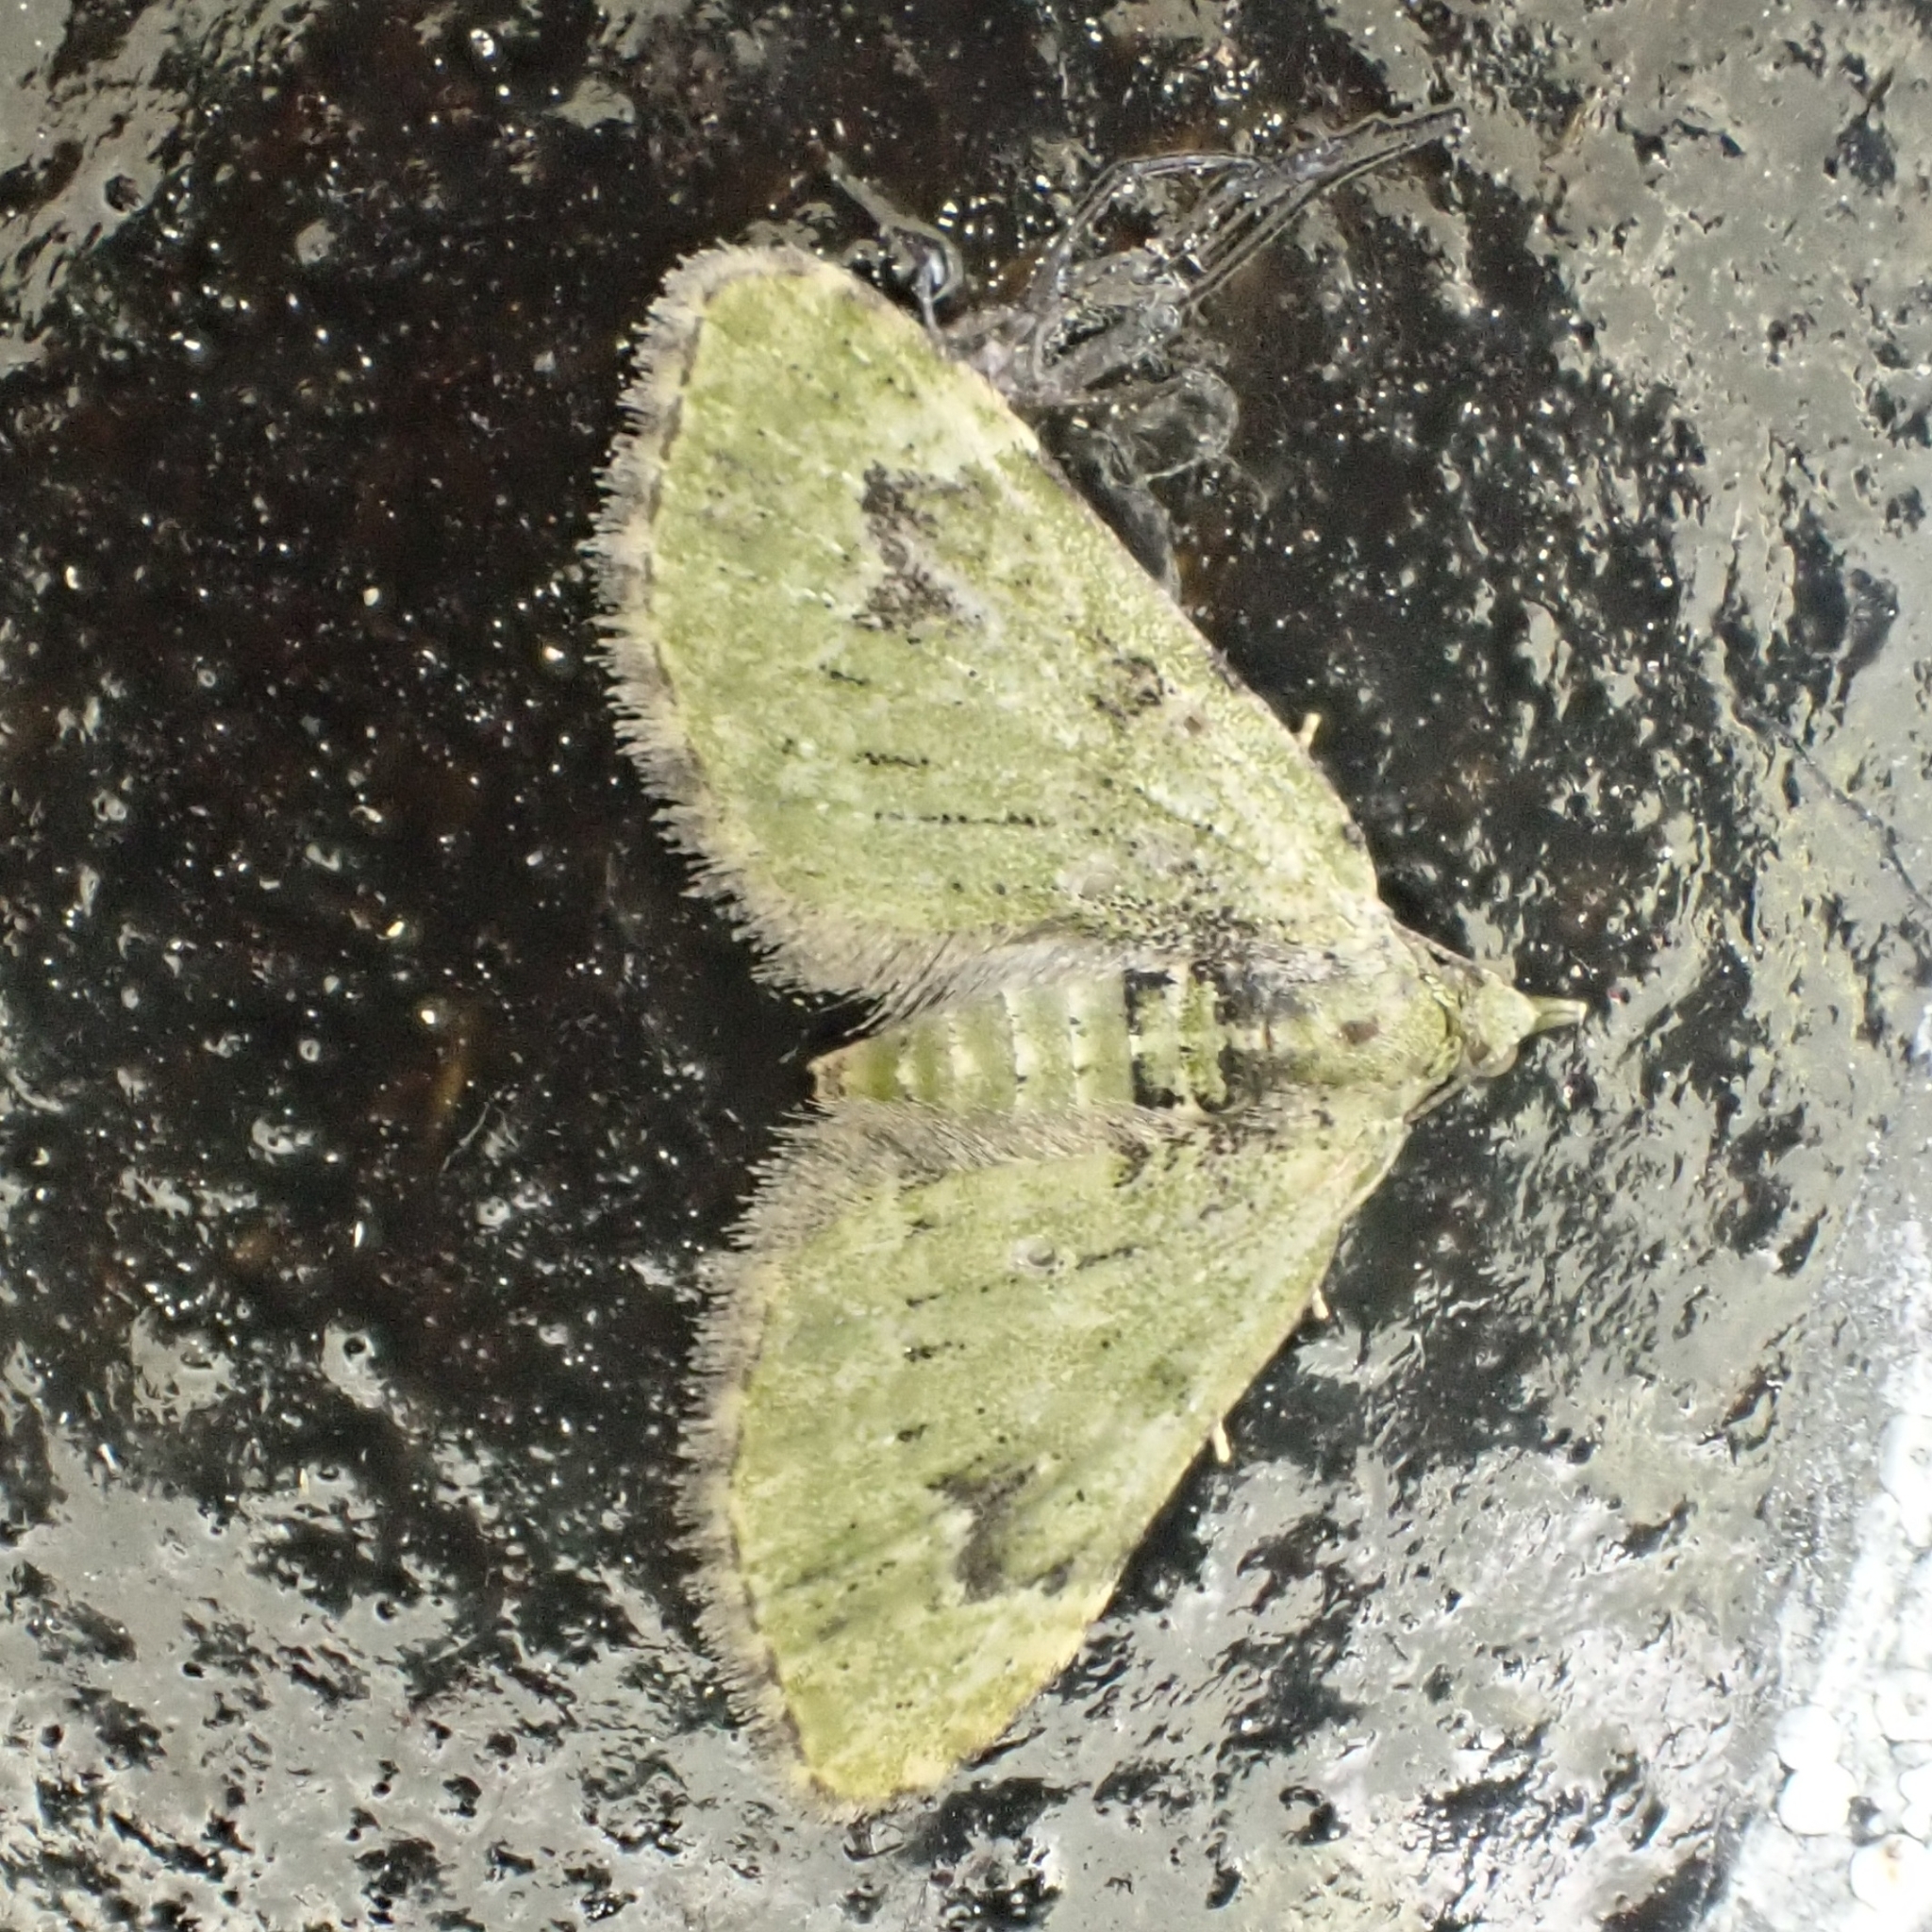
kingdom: Animalia
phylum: Arthropoda
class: Insecta
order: Lepidoptera
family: Geometridae
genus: Chloroclystis
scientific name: Chloroclystis v-ata
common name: V-pug
